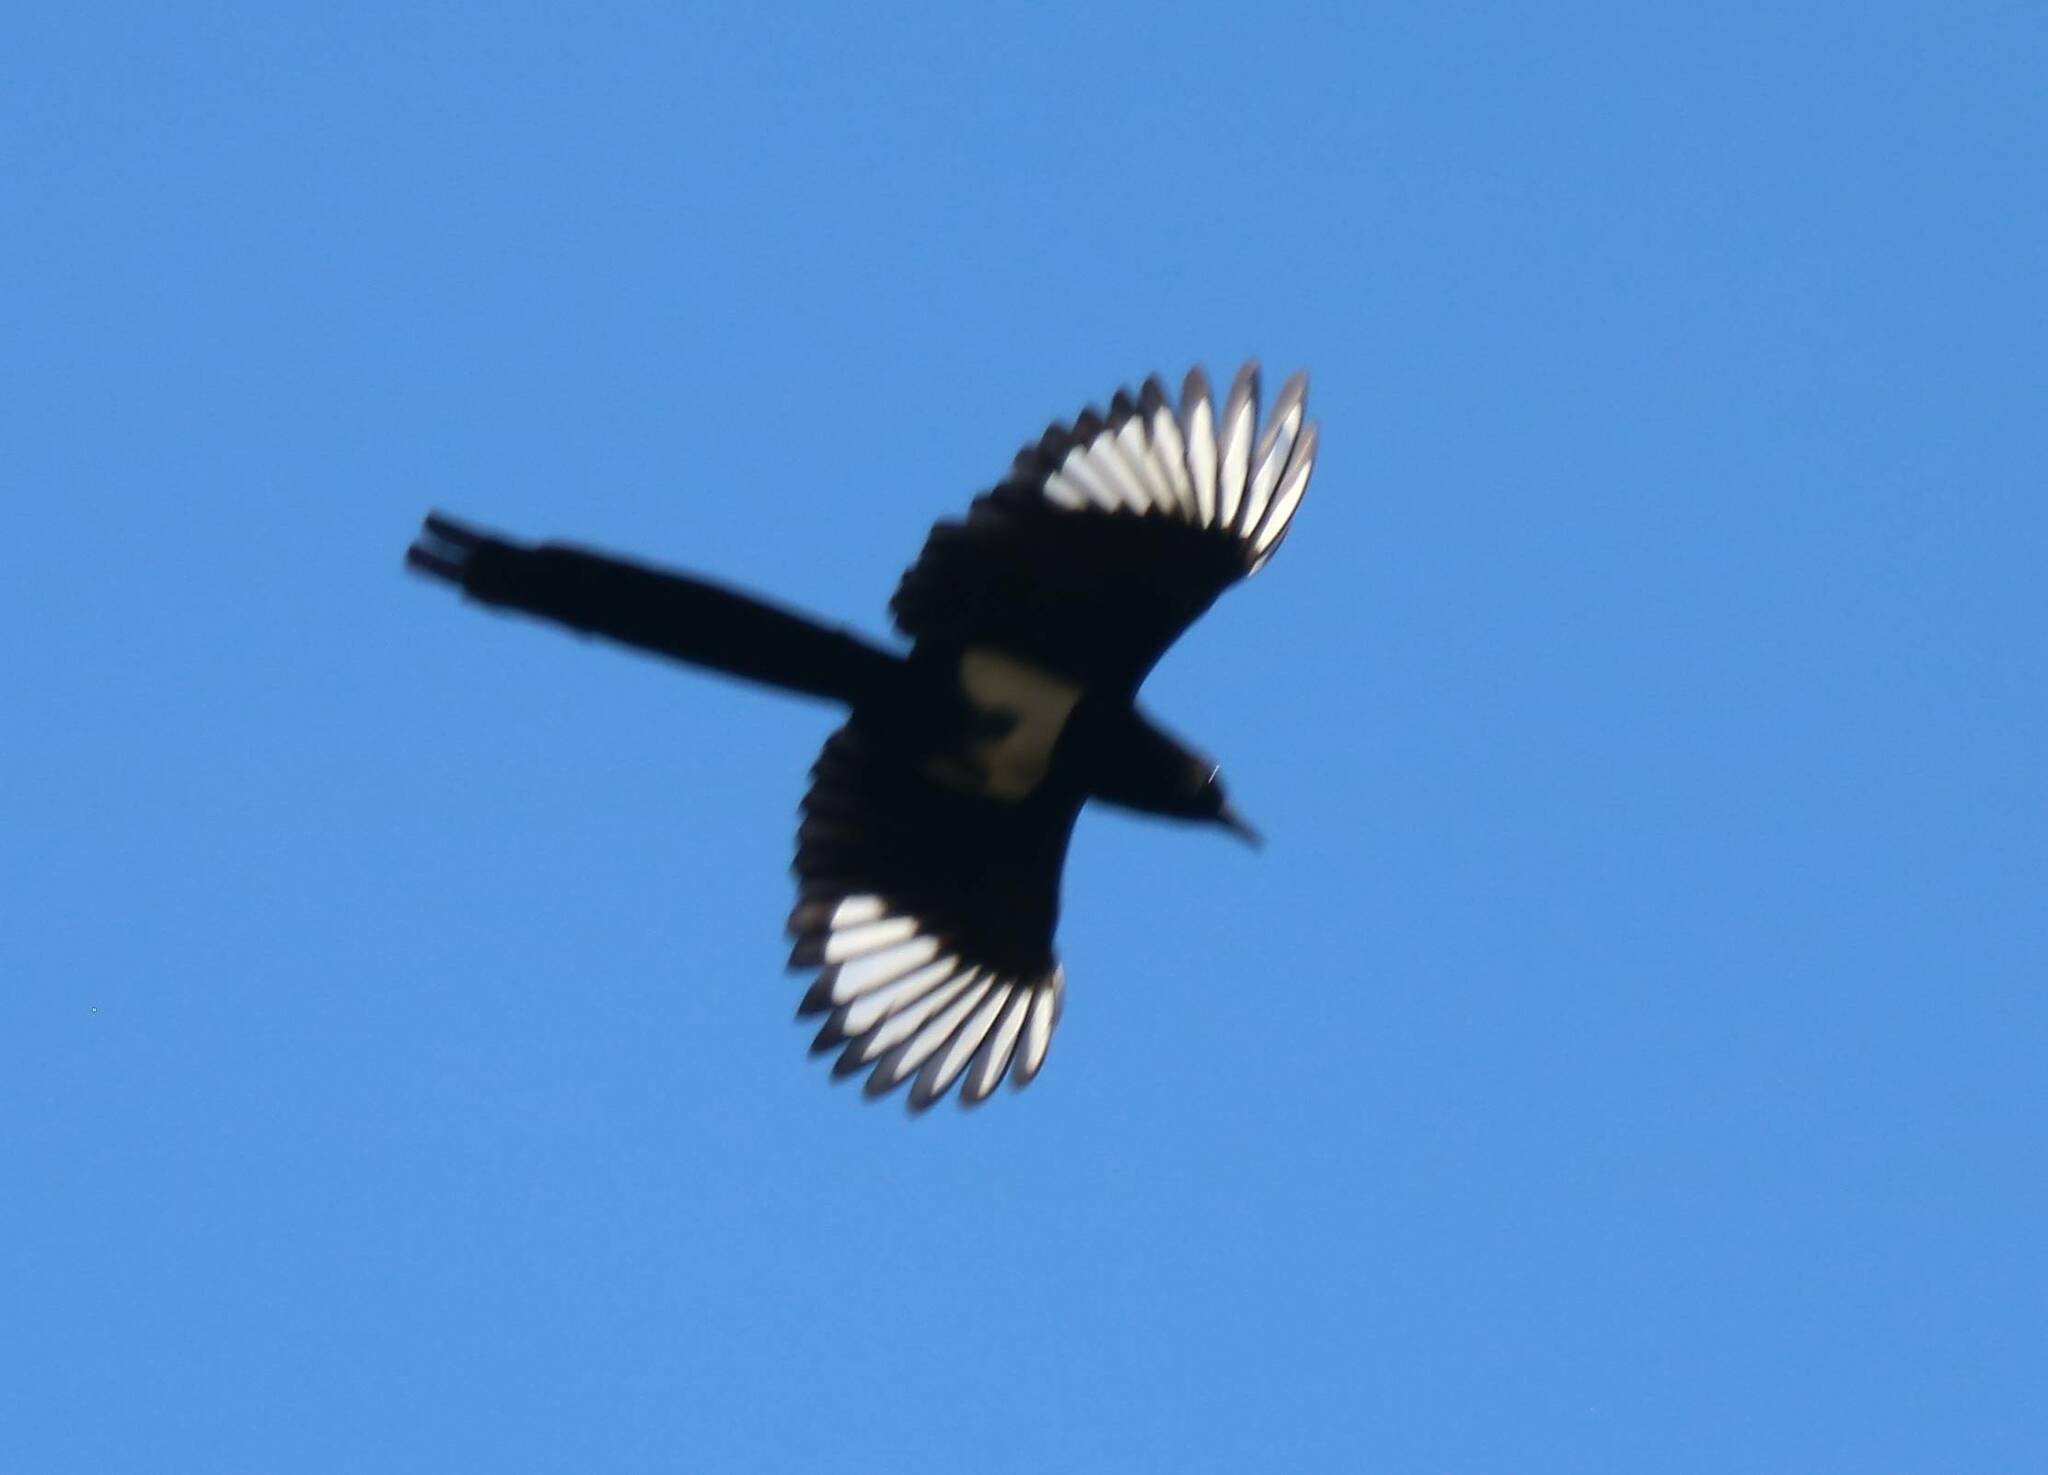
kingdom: Animalia
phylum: Chordata
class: Aves
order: Passeriformes
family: Corvidae
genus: Pica
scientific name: Pica mauritanica
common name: Maghreb magpie
